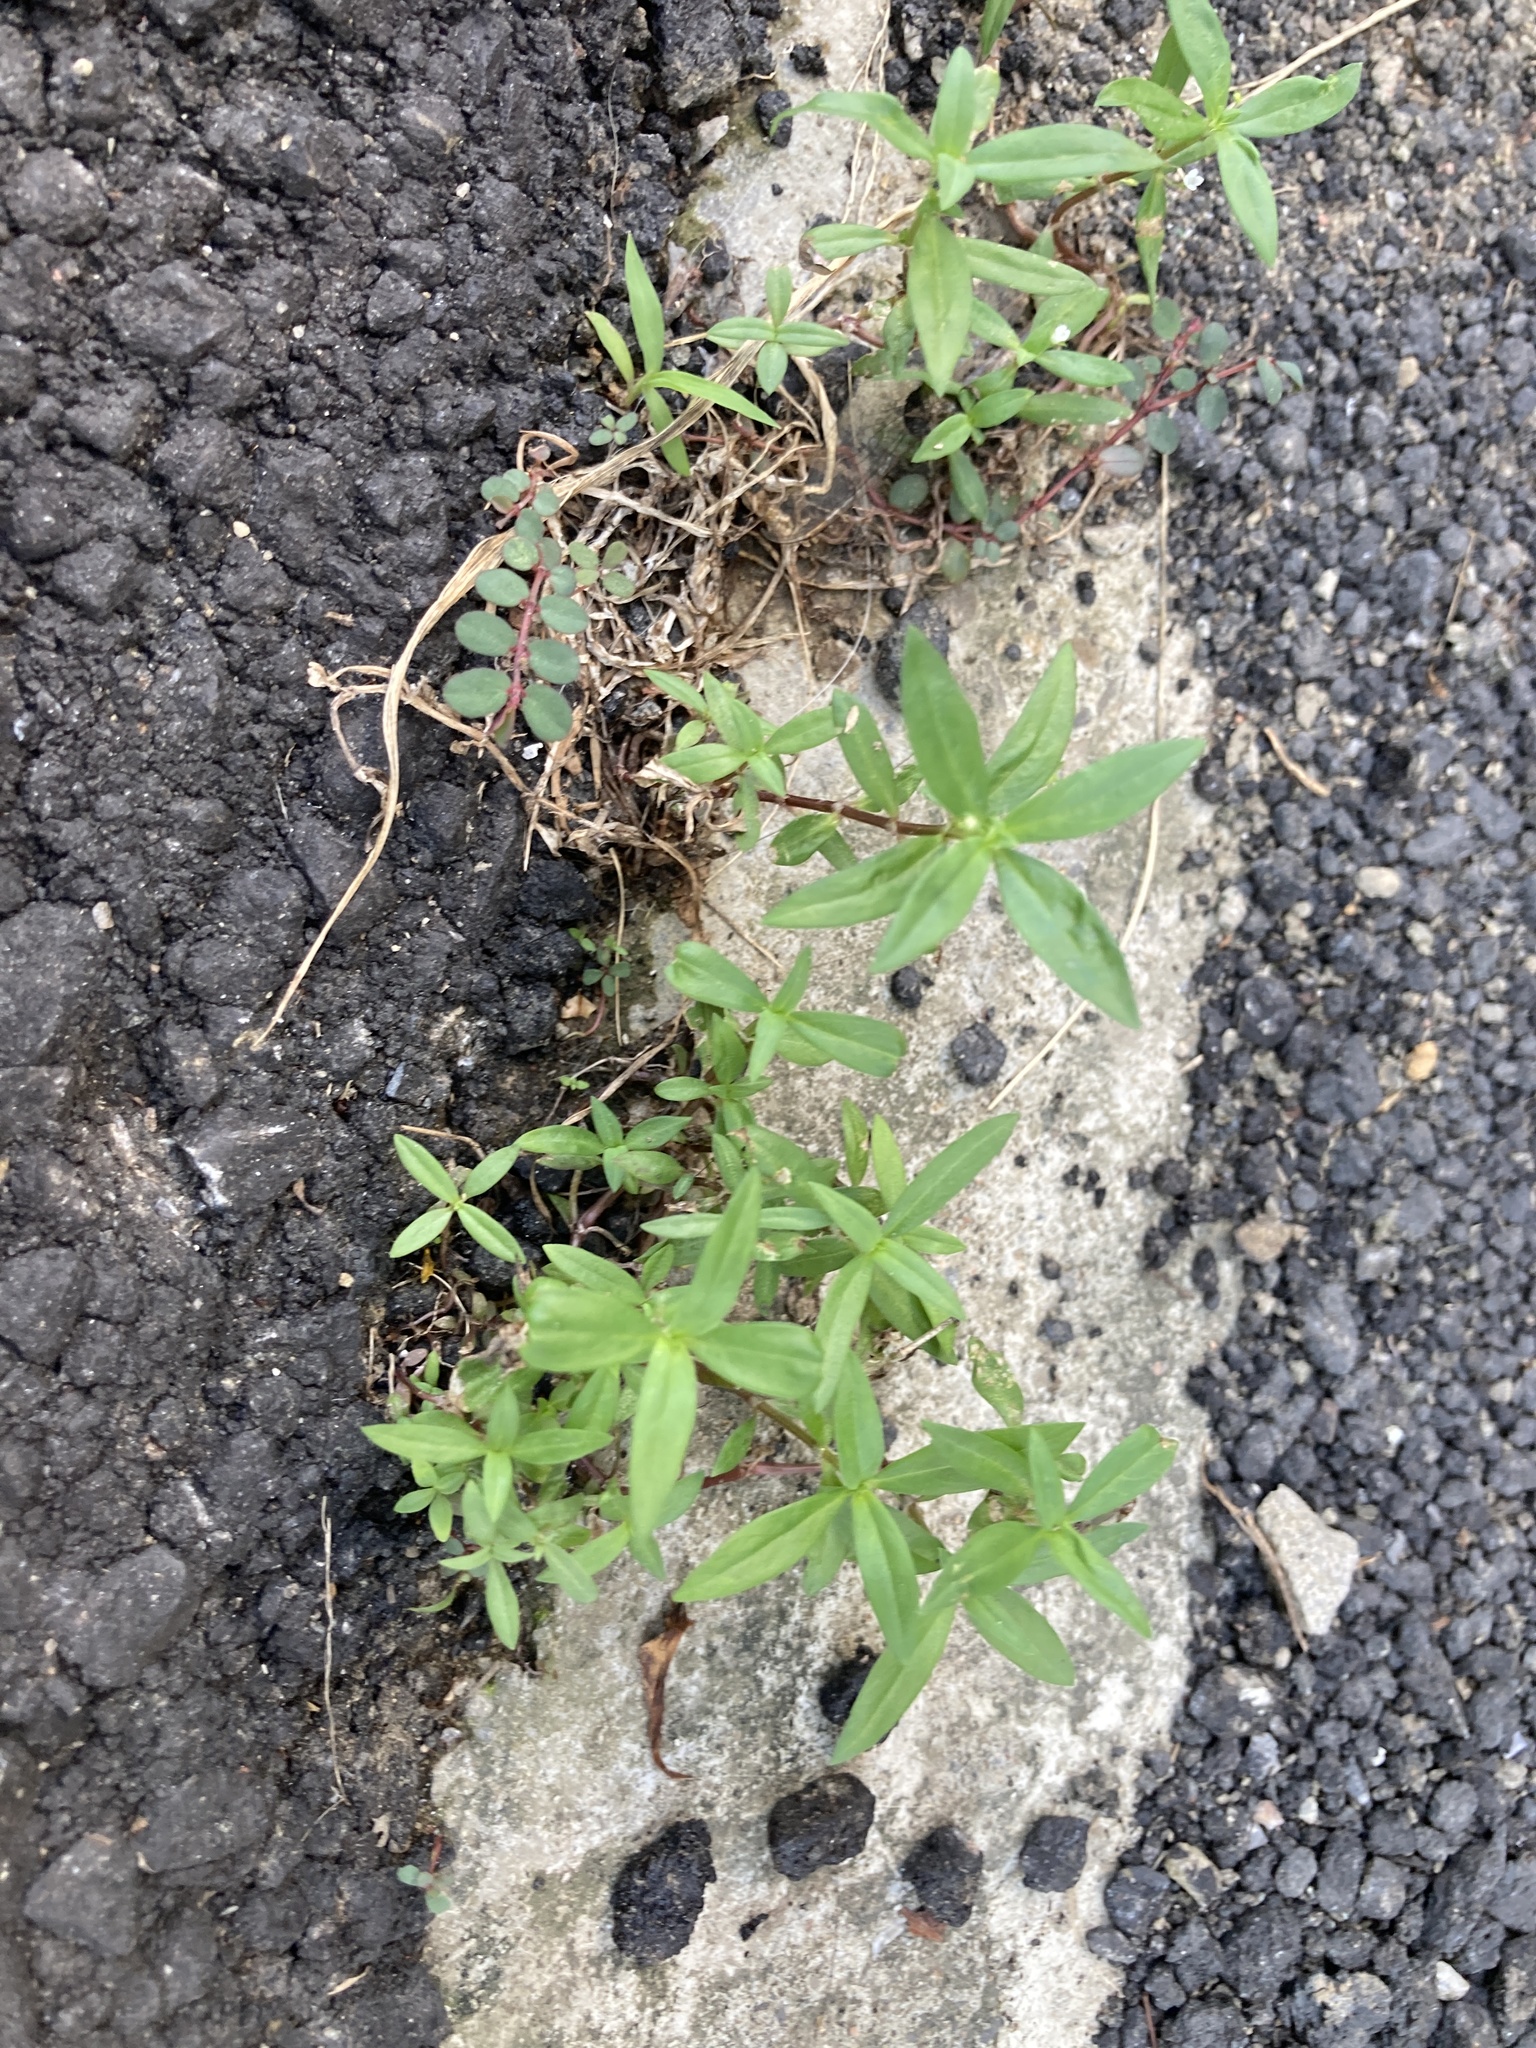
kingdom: Plantae
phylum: Tracheophyta
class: Magnoliopsida
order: Gentianales
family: Rubiaceae
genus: Oldenlandia
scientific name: Oldenlandia corymbosa
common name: Flat-top mille graines
